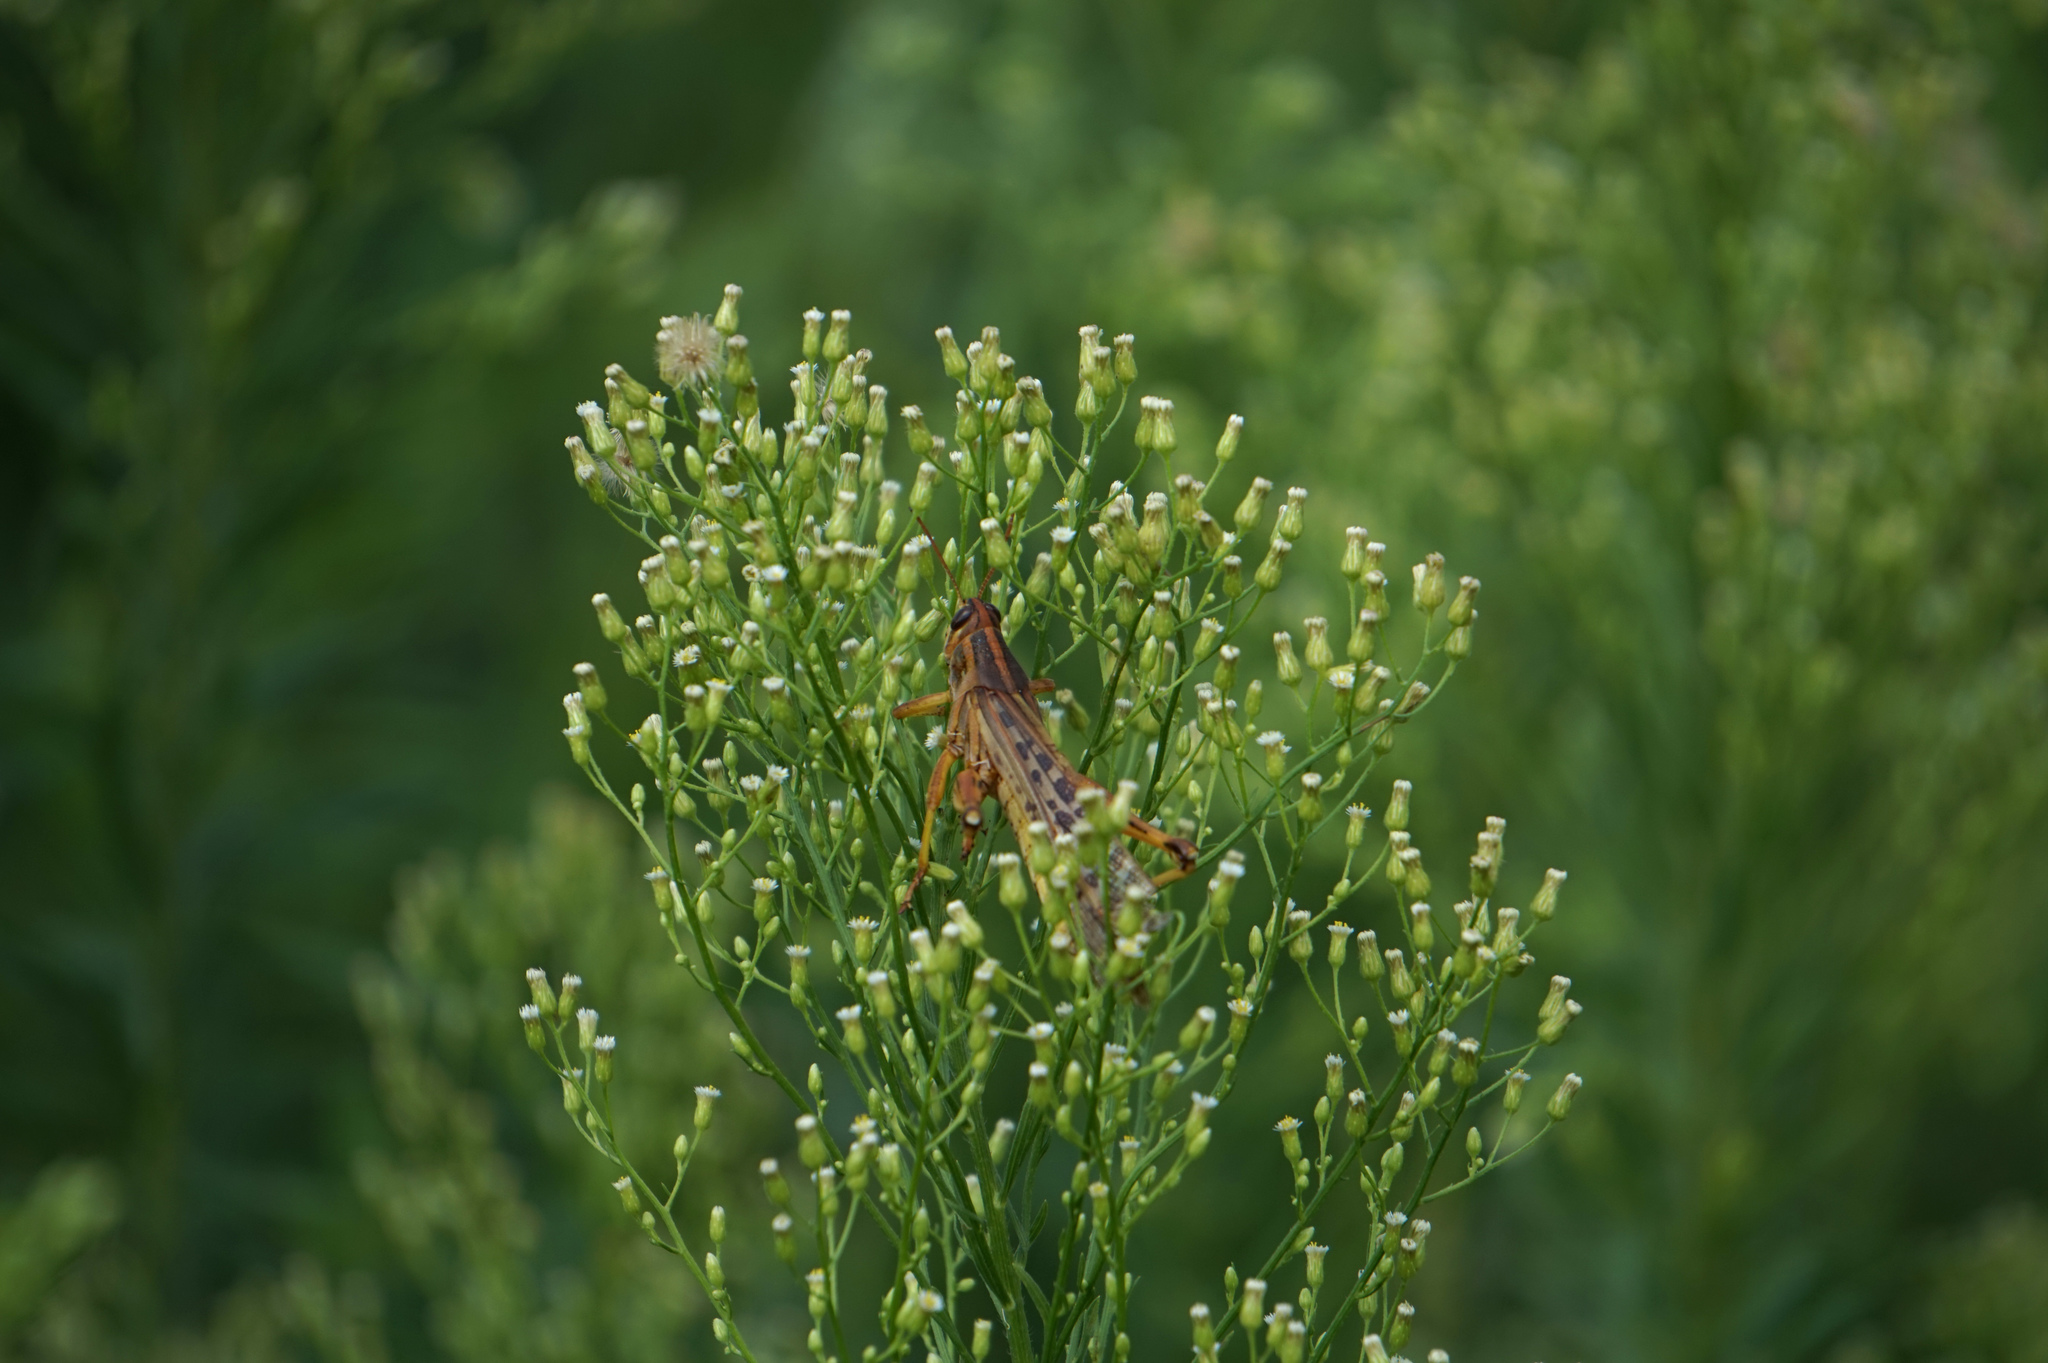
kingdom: Animalia
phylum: Arthropoda
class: Insecta
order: Orthoptera
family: Acrididae
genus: Schistocerca
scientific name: Schistocerca americana
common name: American bird locust
